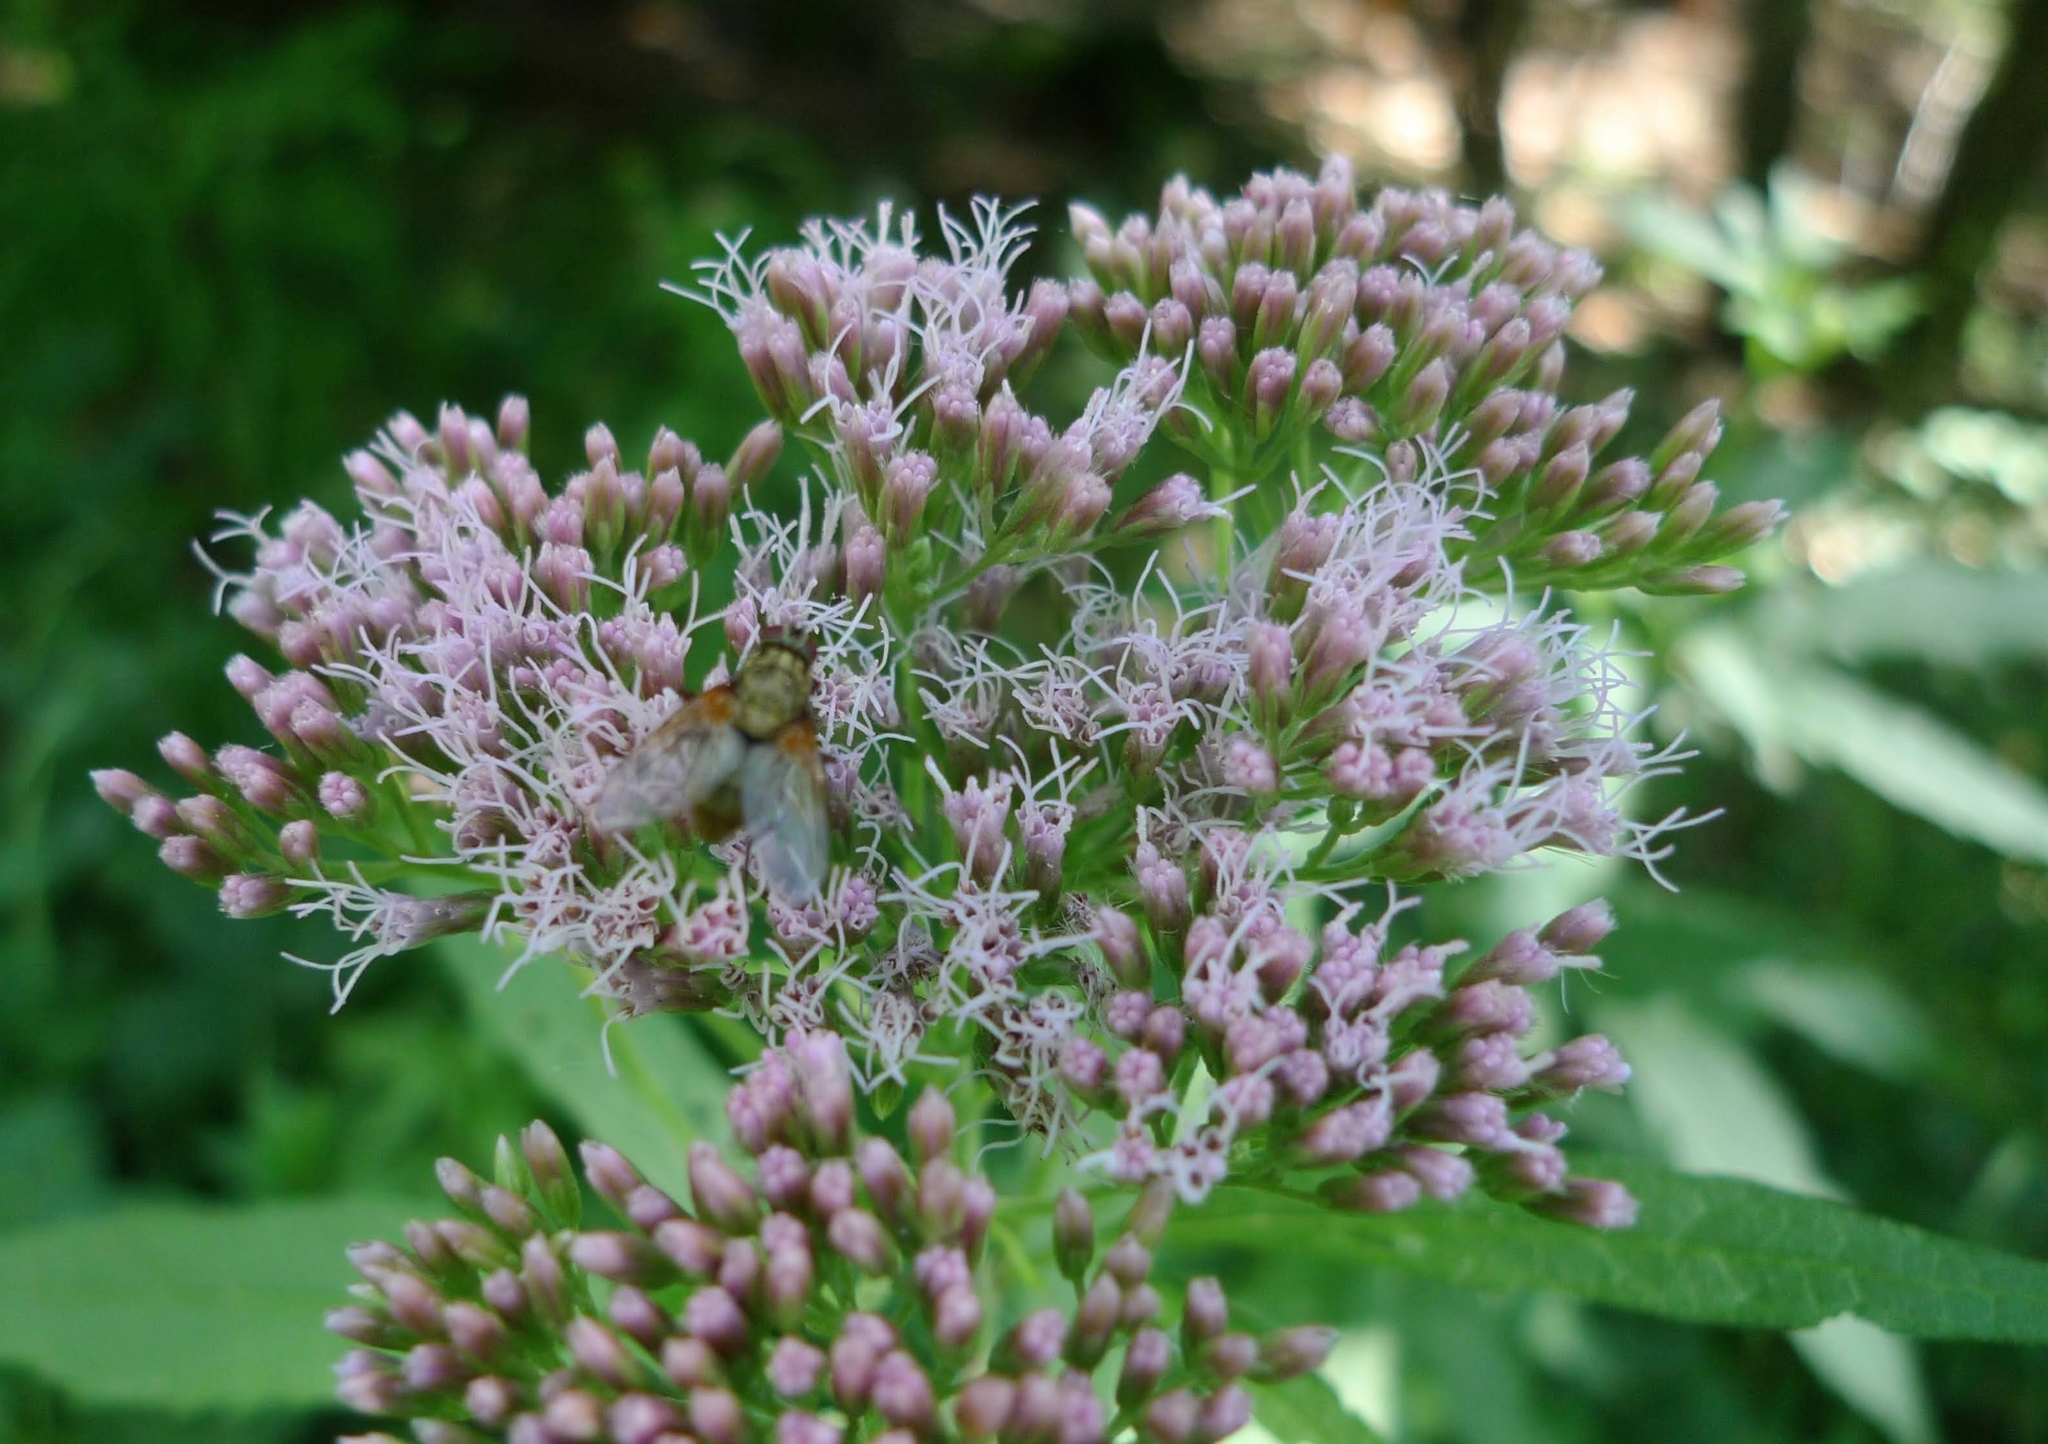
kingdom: Plantae
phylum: Tracheophyta
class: Magnoliopsida
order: Asterales
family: Asteraceae
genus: Eupatorium
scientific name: Eupatorium cannabinum
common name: Hemp-agrimony
